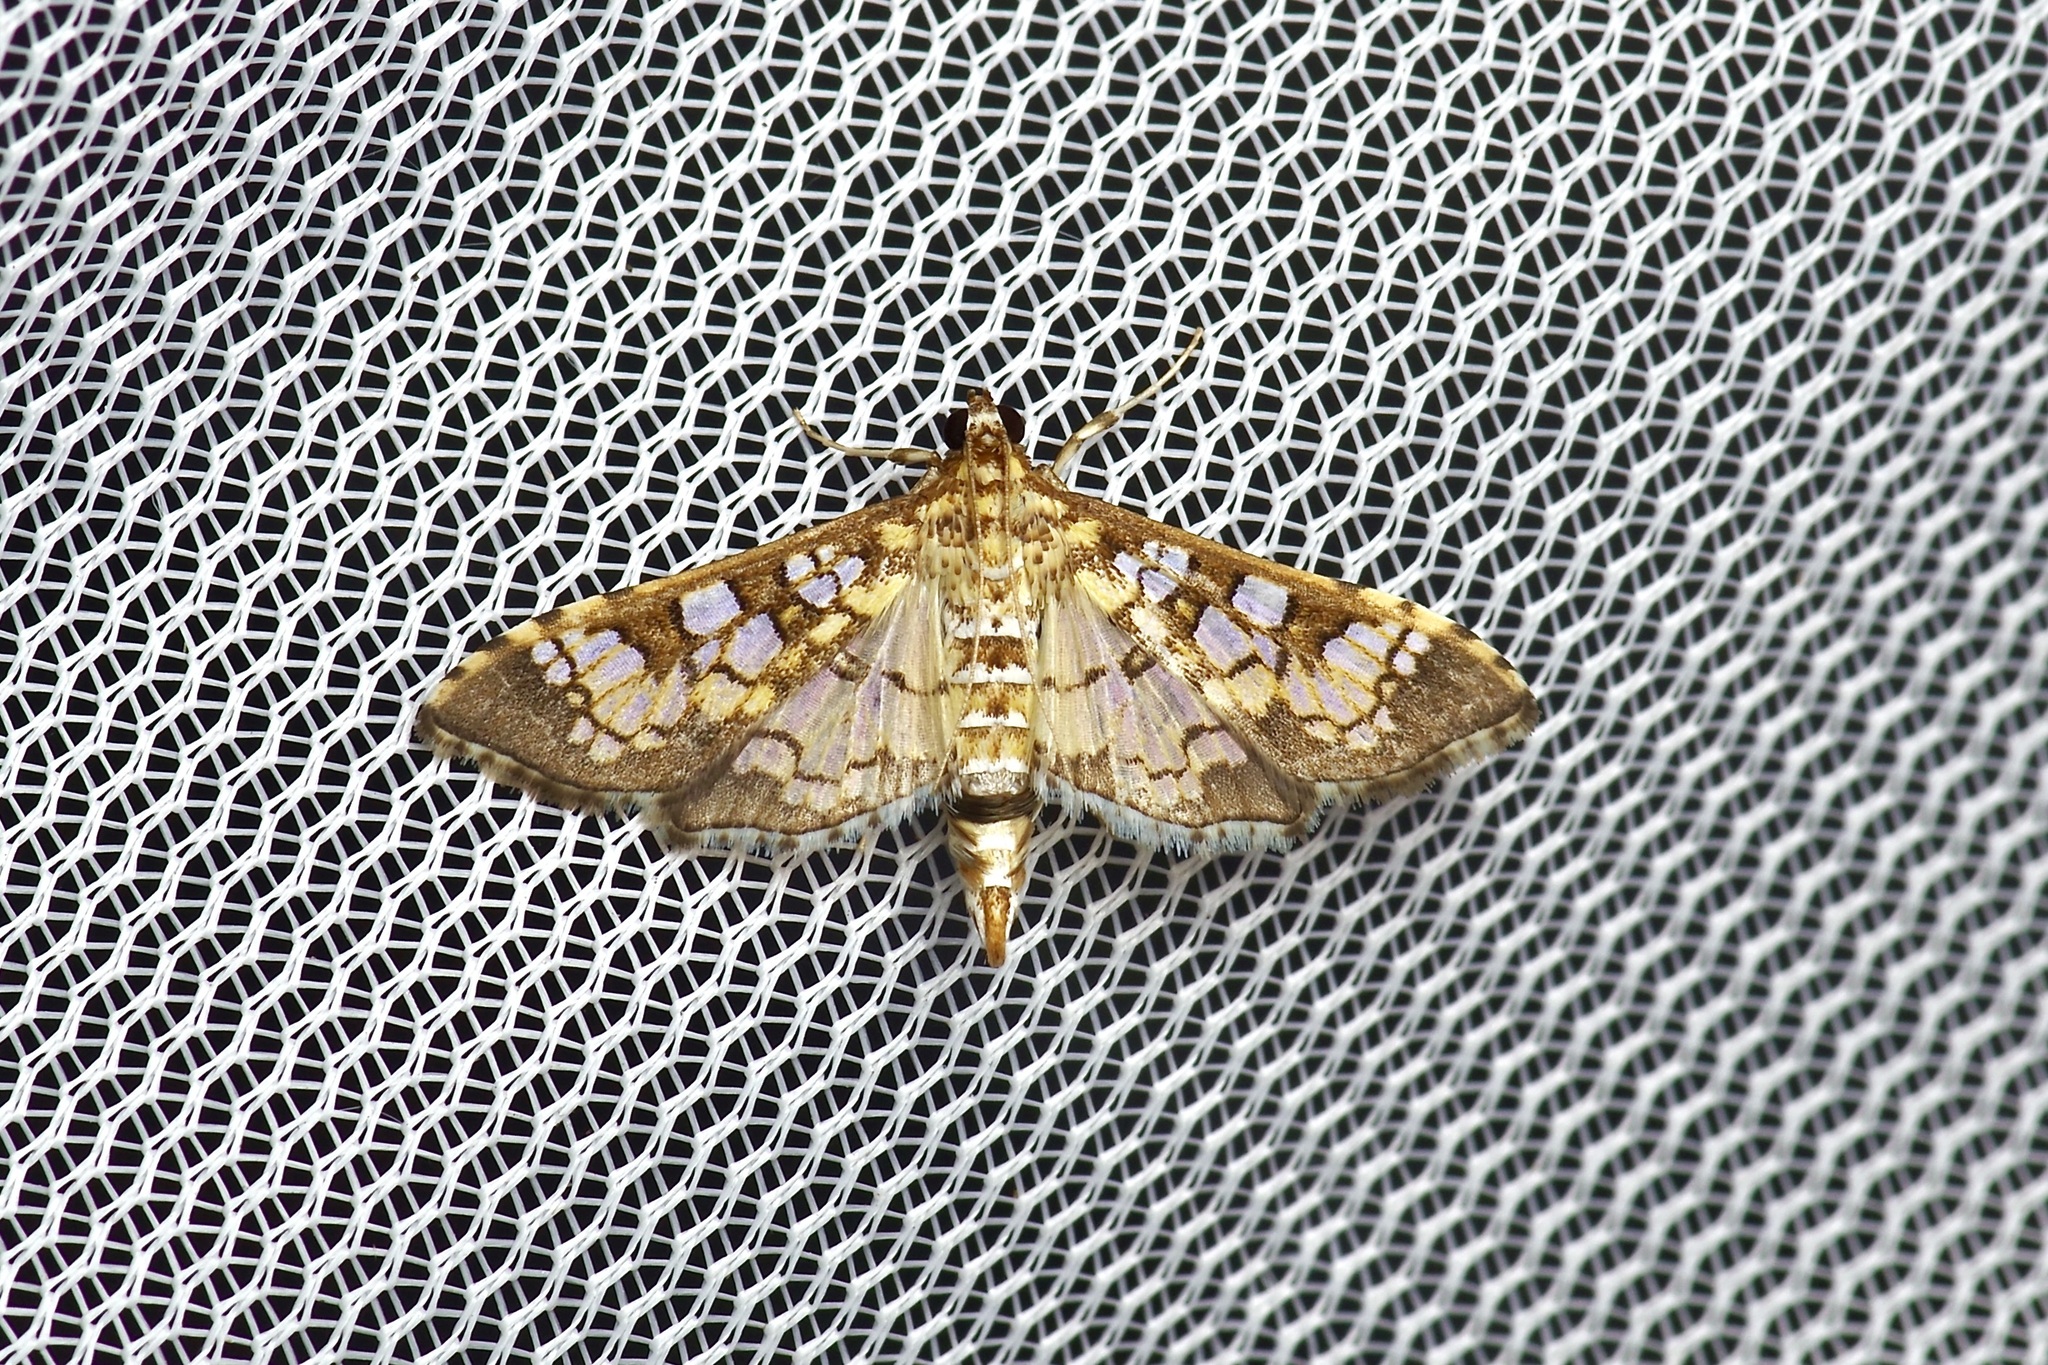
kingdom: Animalia
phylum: Arthropoda
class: Insecta
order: Lepidoptera
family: Crambidae
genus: Samea
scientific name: Samea ecclesialis
